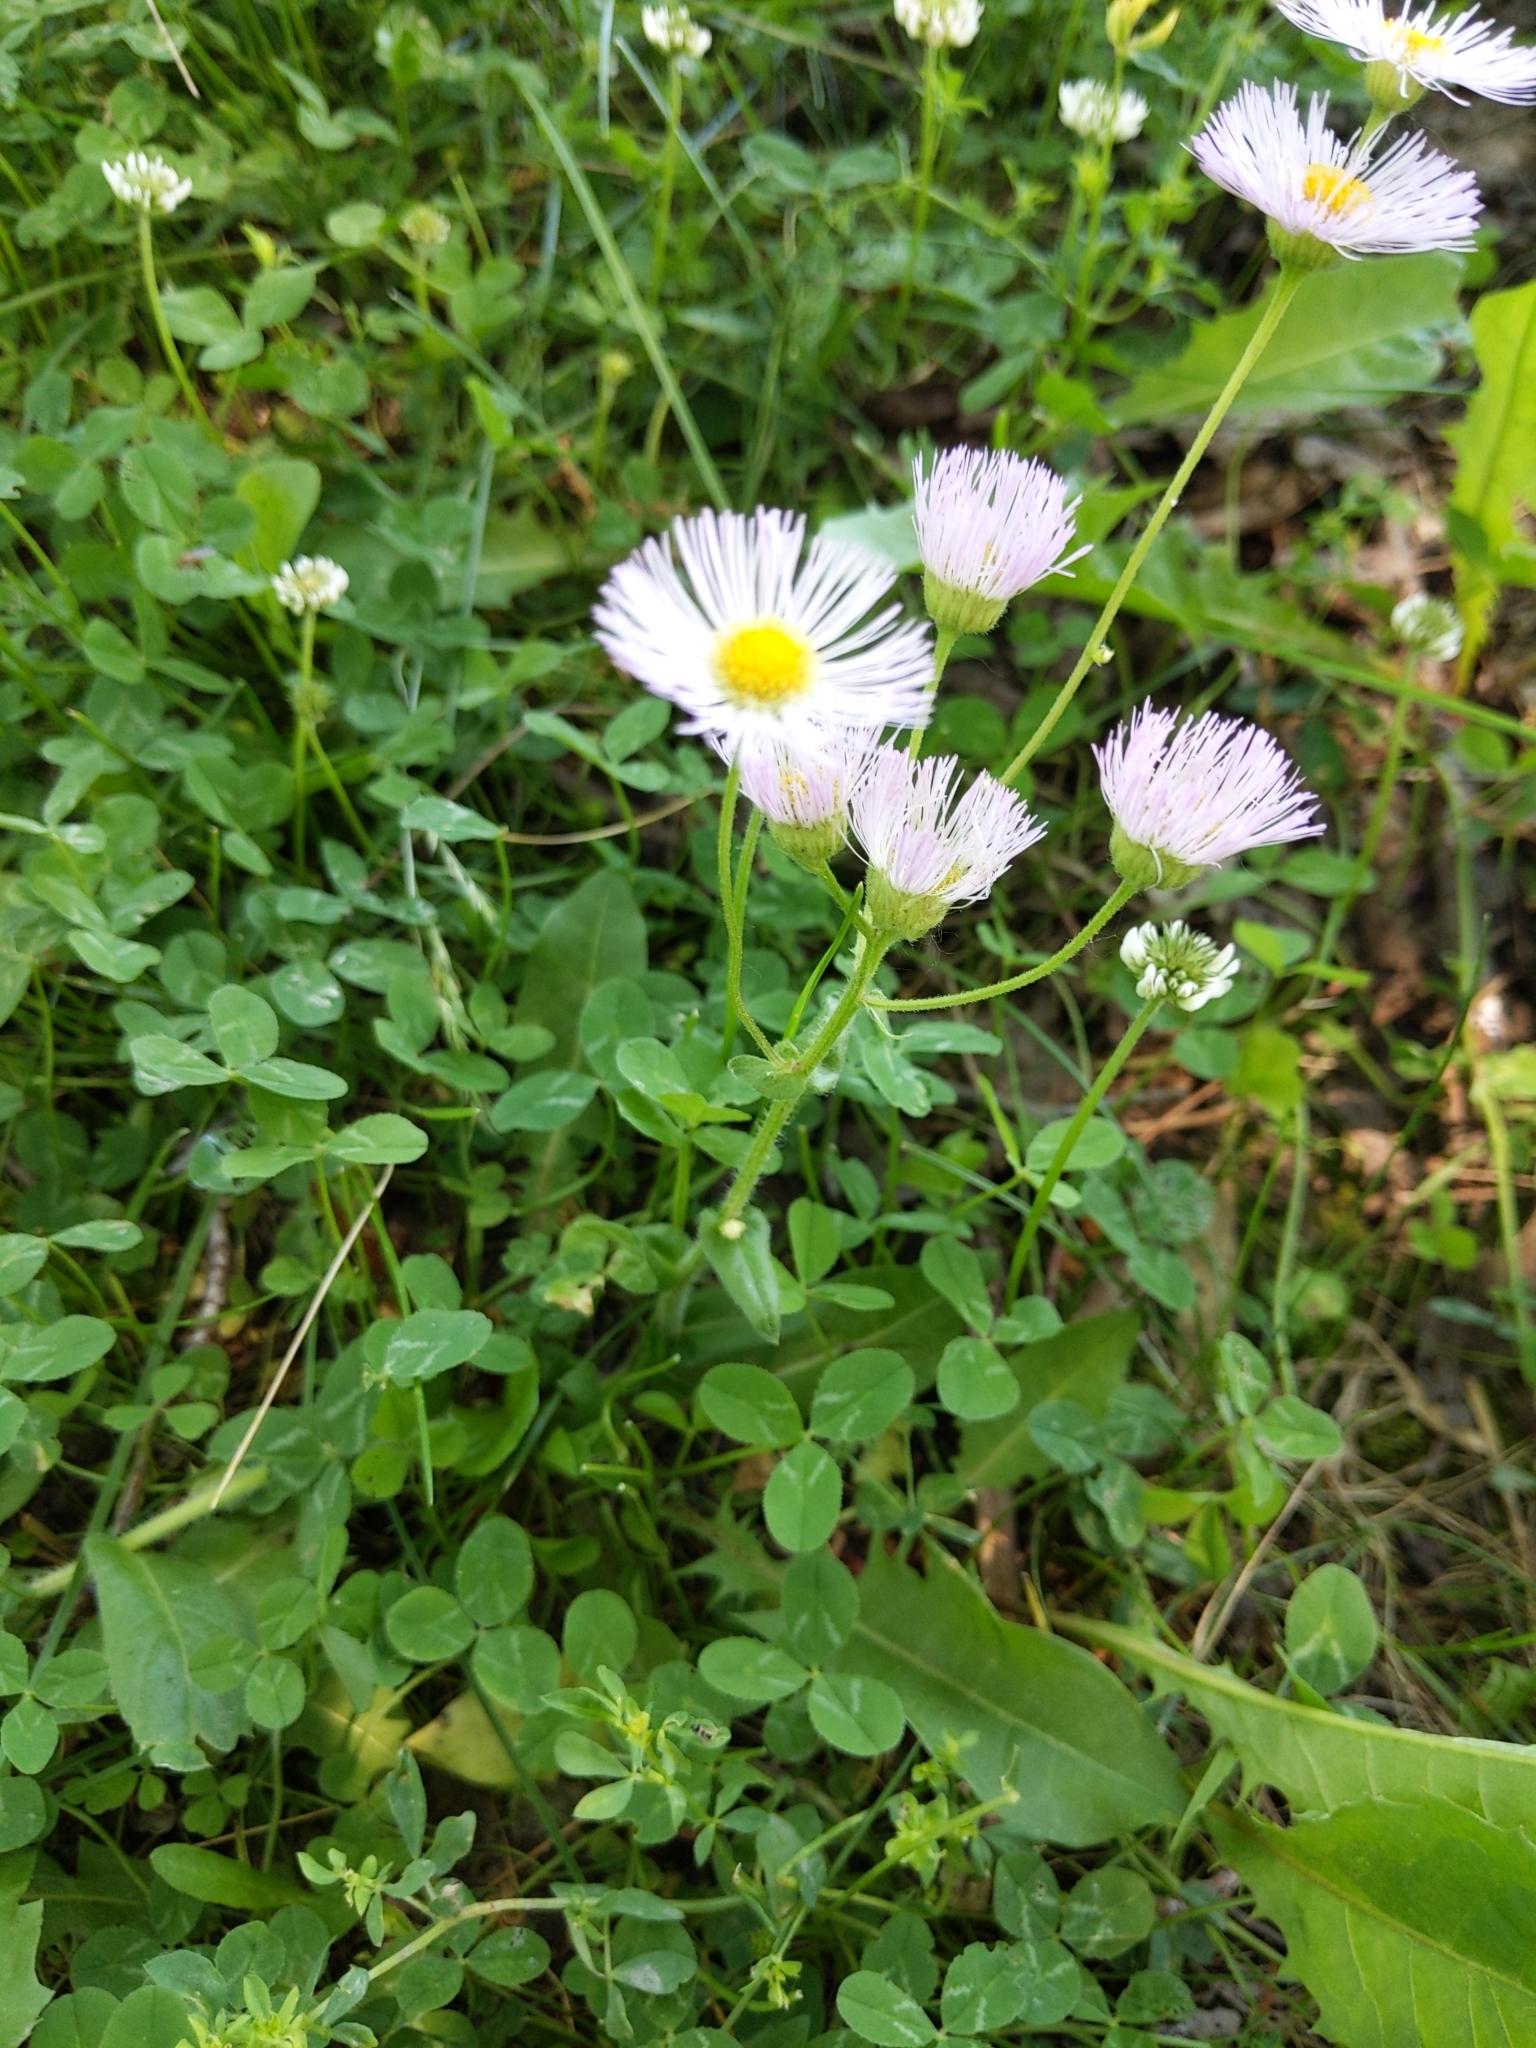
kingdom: Plantae
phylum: Tracheophyta
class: Magnoliopsida
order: Asterales
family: Asteraceae
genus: Erigeron
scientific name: Erigeron philadelphicus
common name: Robin's-plantain
